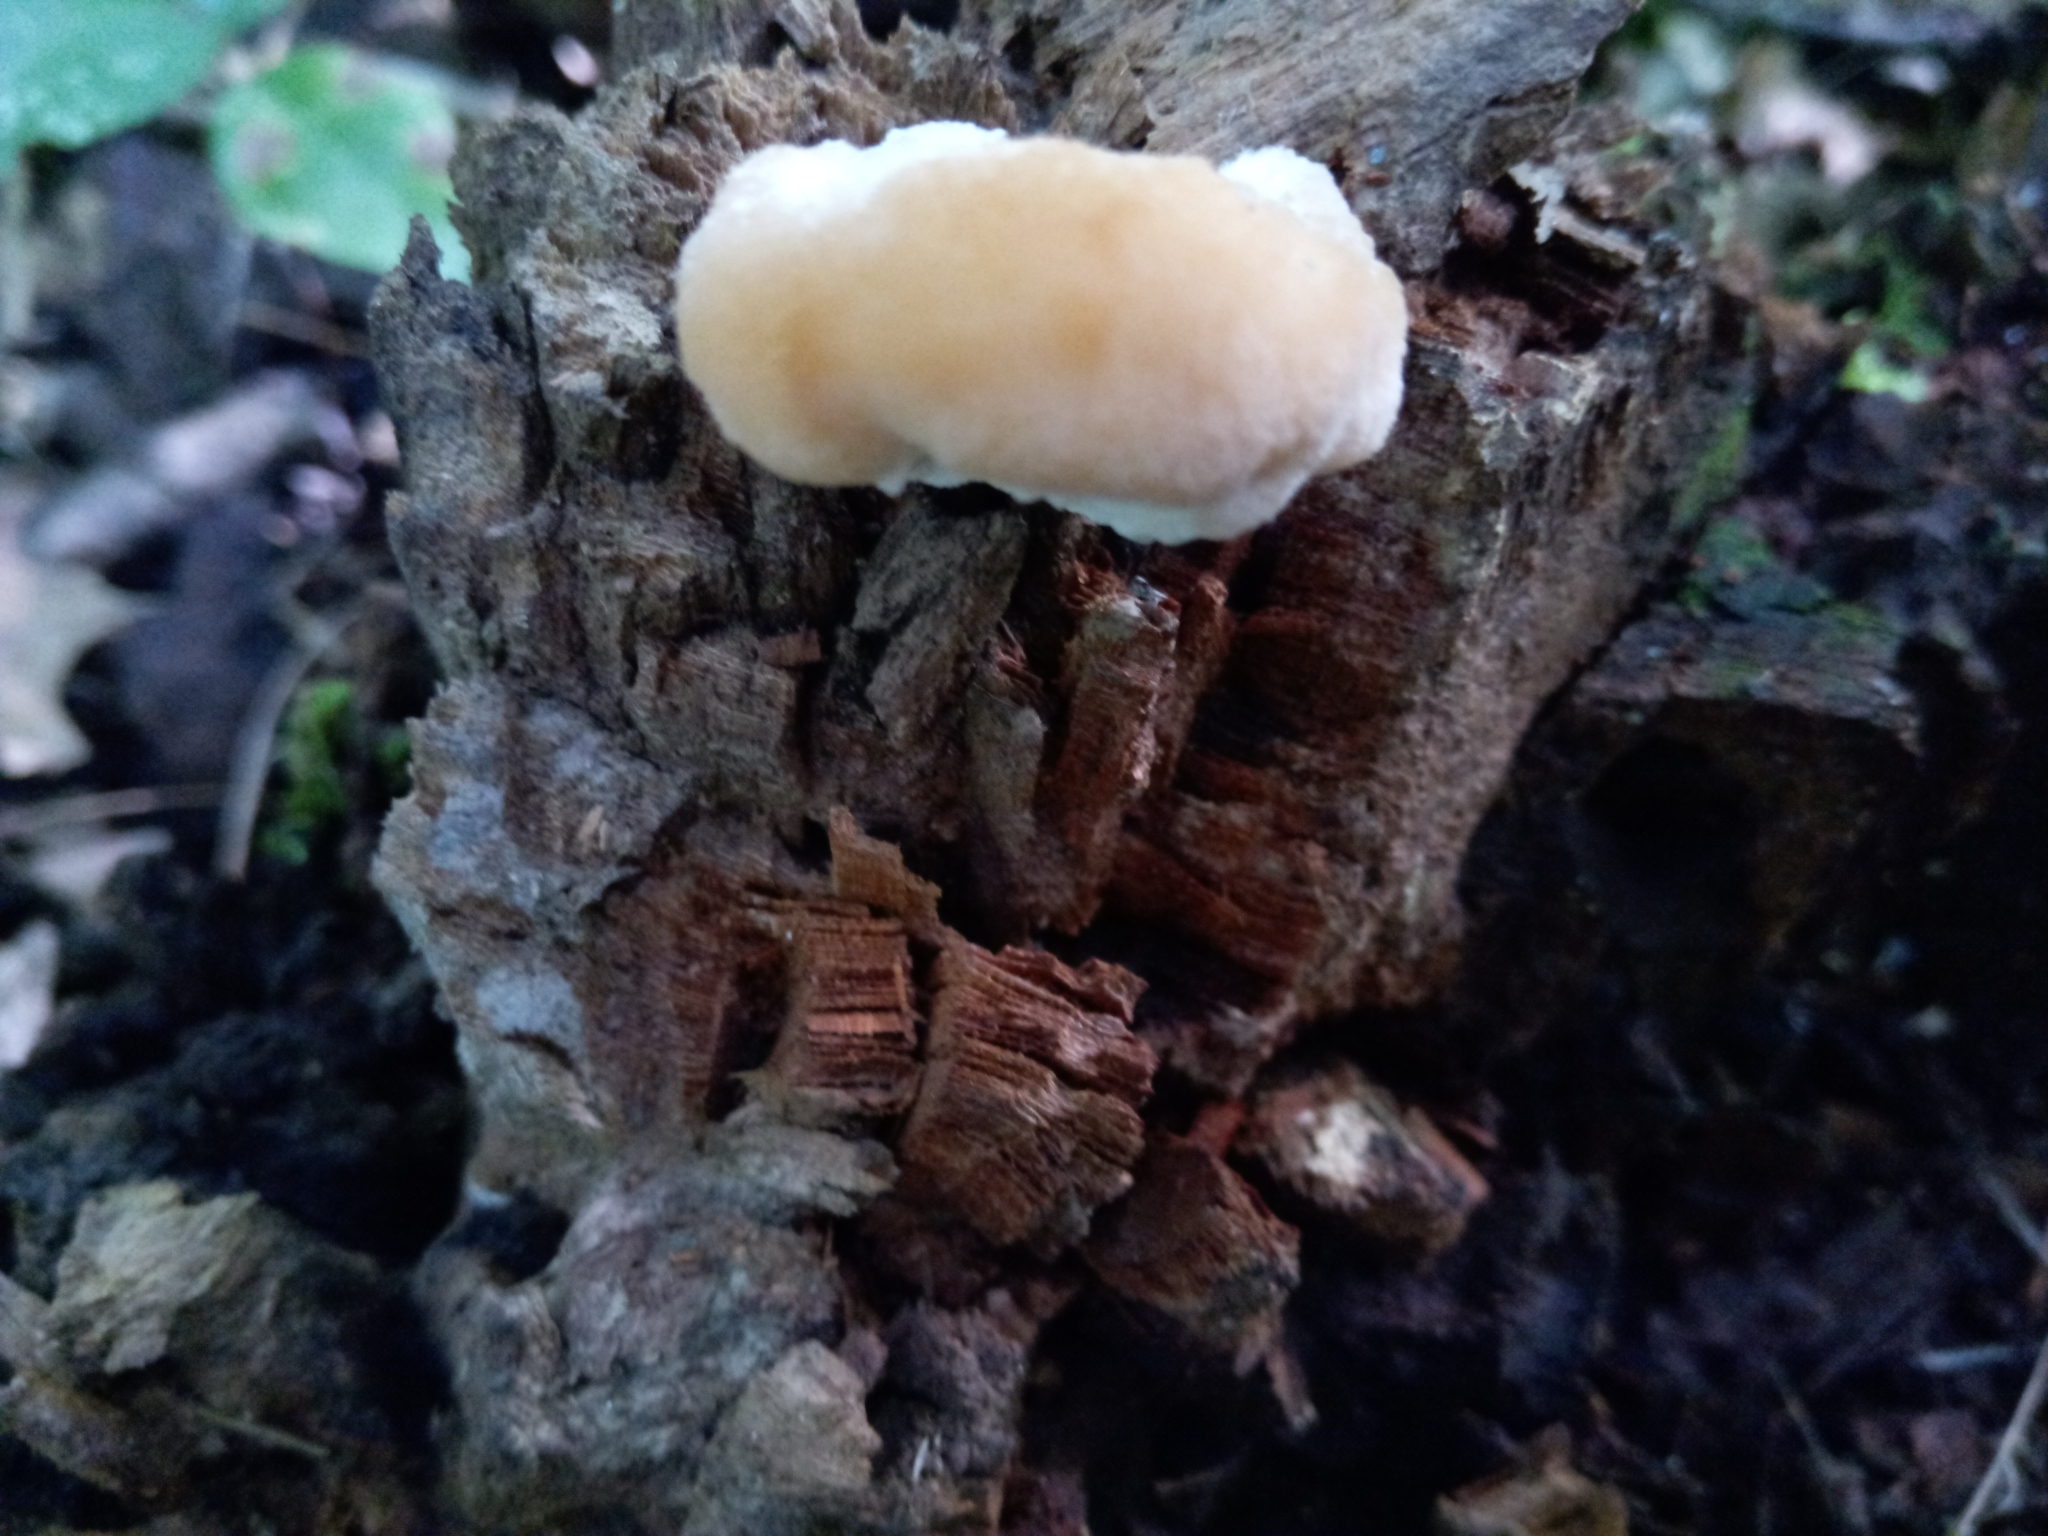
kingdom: Fungi
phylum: Basidiomycota
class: Agaricomycetes
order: Polyporales
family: Fomitopsidaceae
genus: Niveoporofomes
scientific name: Niveoporofomes spraguei
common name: Green cheese polypore
